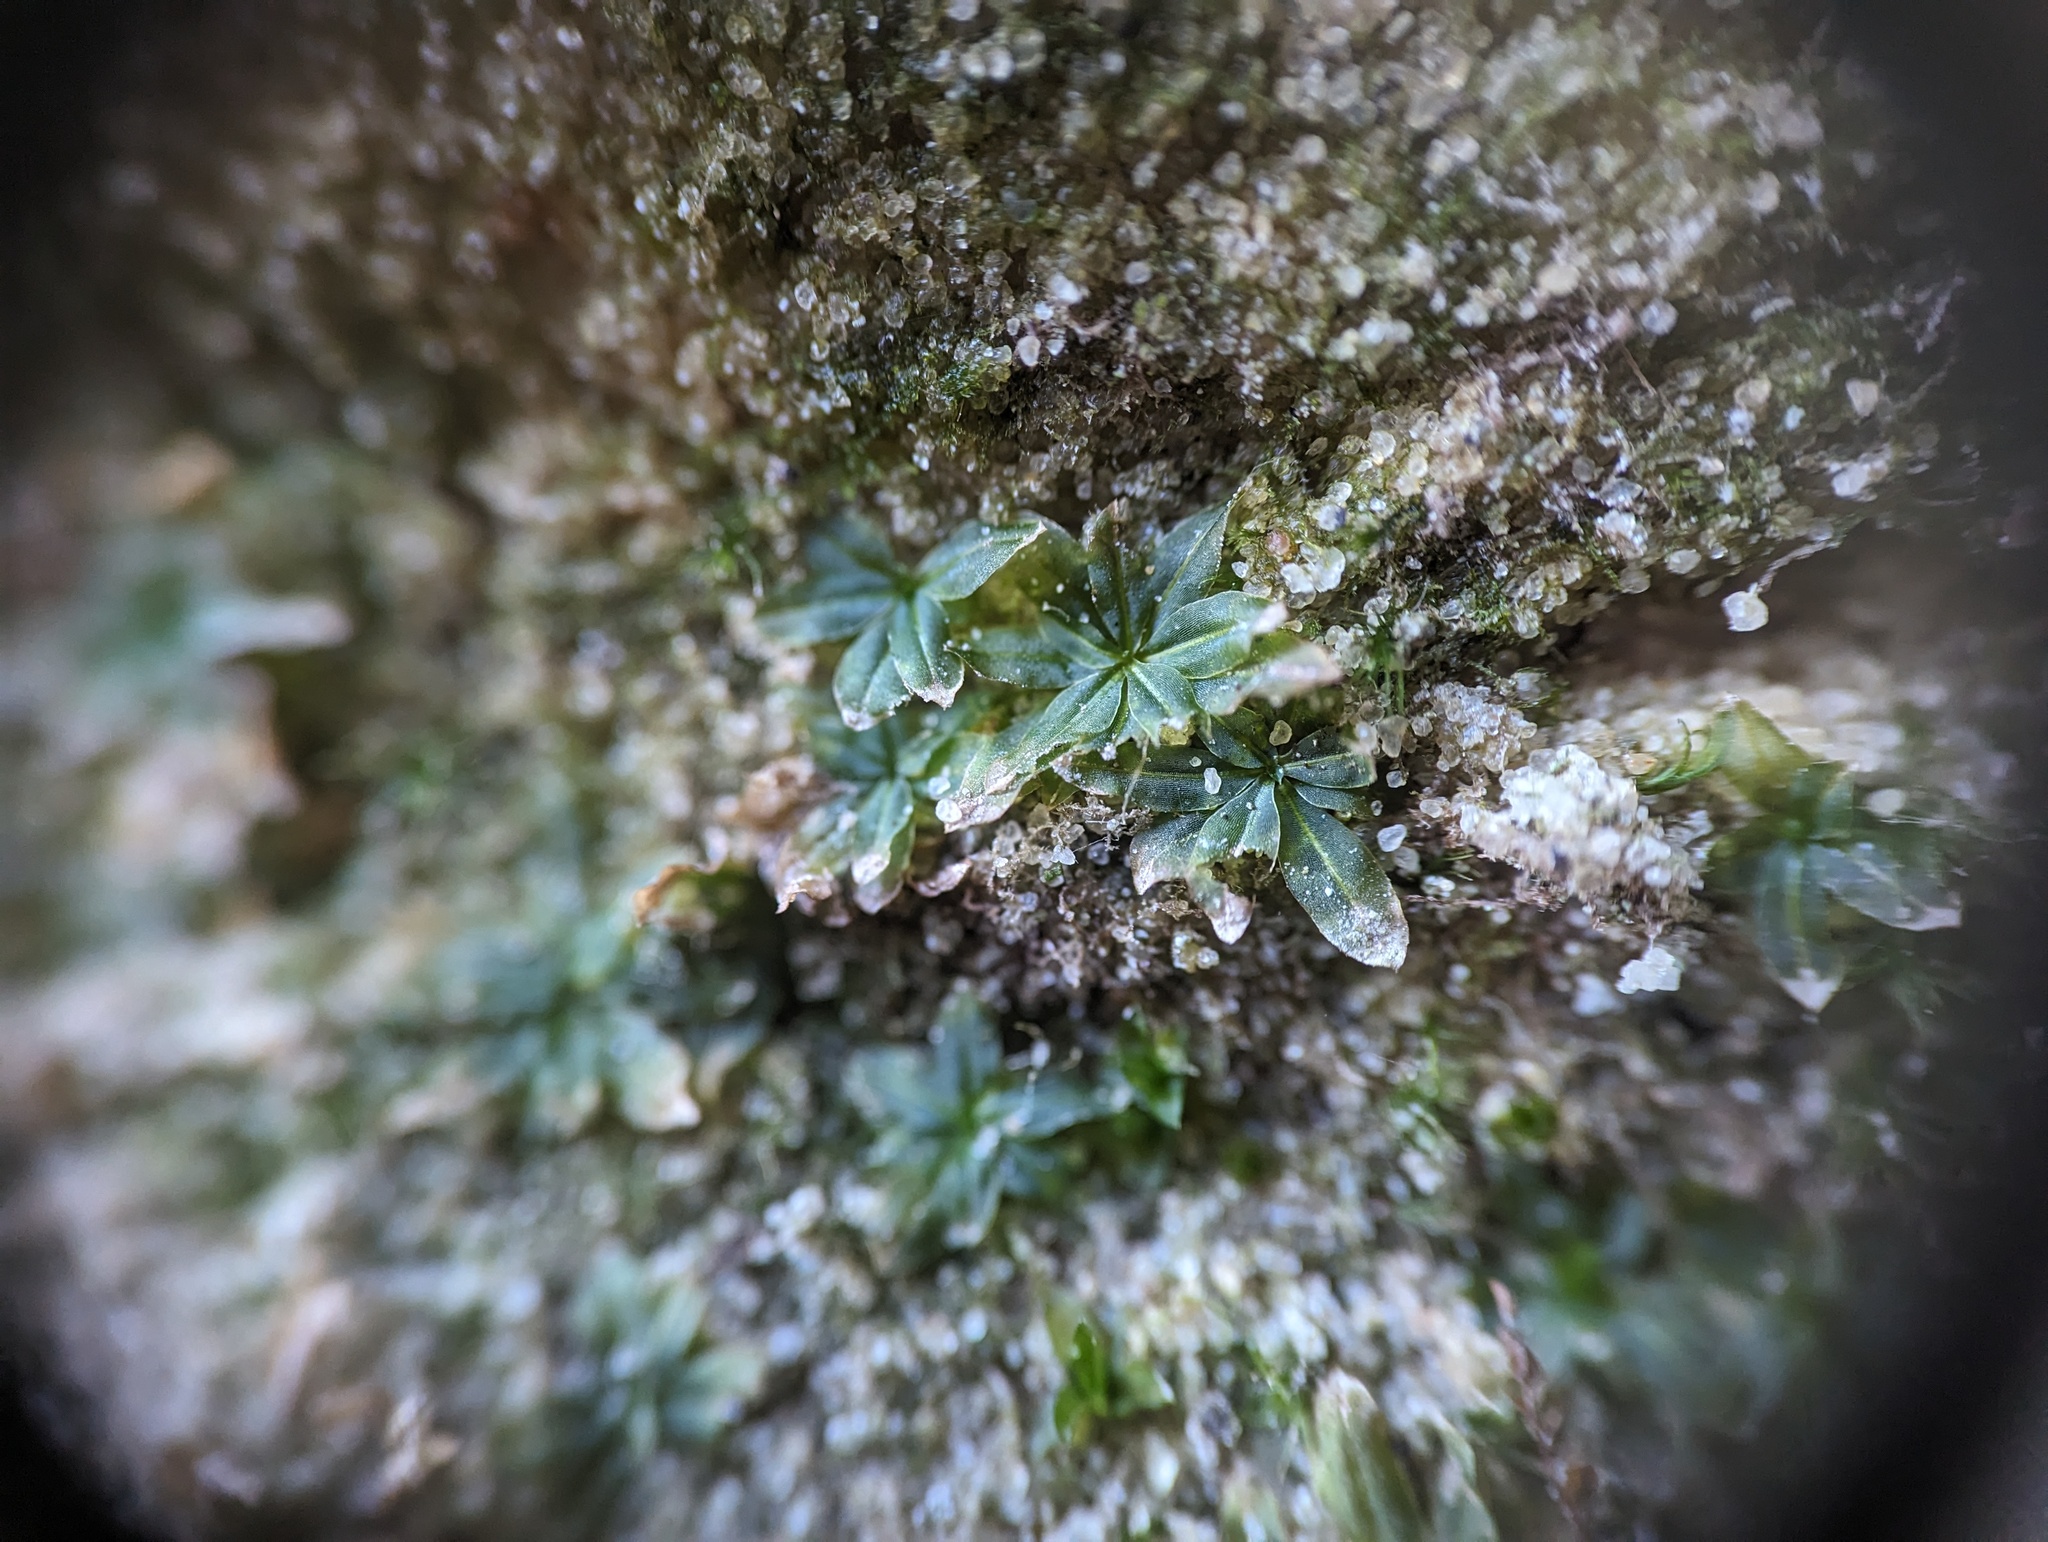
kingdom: Plantae
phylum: Bryophyta
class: Bryopsida
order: Pottiales
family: Pottiaceae
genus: Hyophila
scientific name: Hyophila involuta
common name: Hyophila moss
